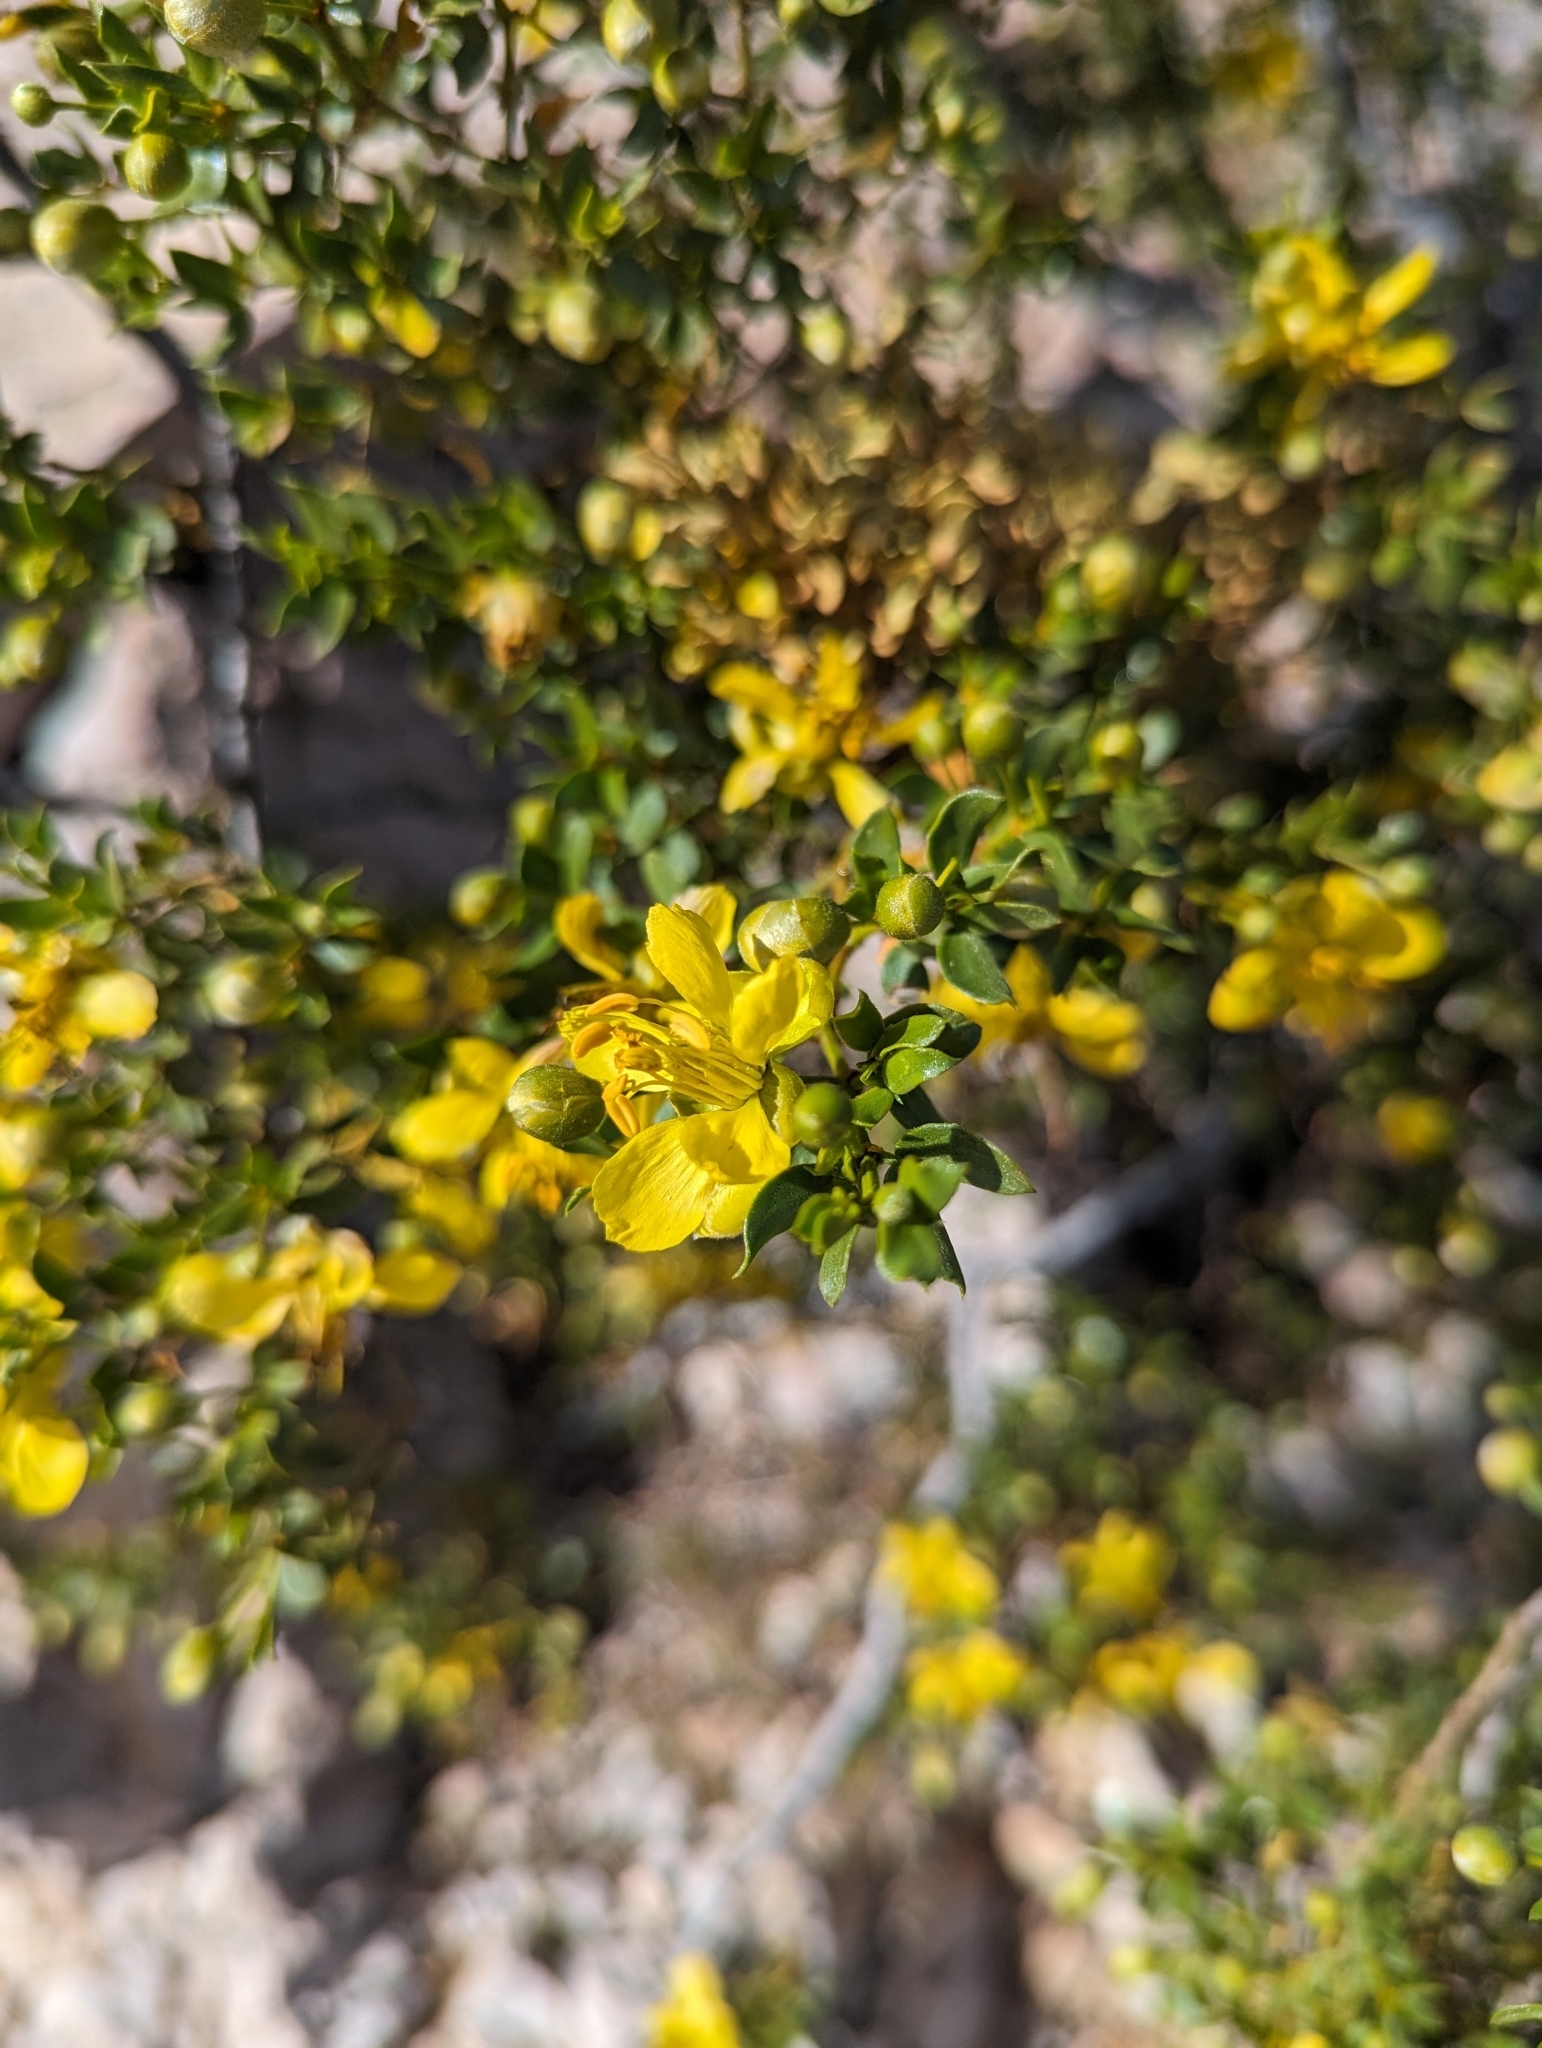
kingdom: Plantae
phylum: Tracheophyta
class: Magnoliopsida
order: Zygophyllales
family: Zygophyllaceae
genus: Larrea
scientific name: Larrea tridentata
